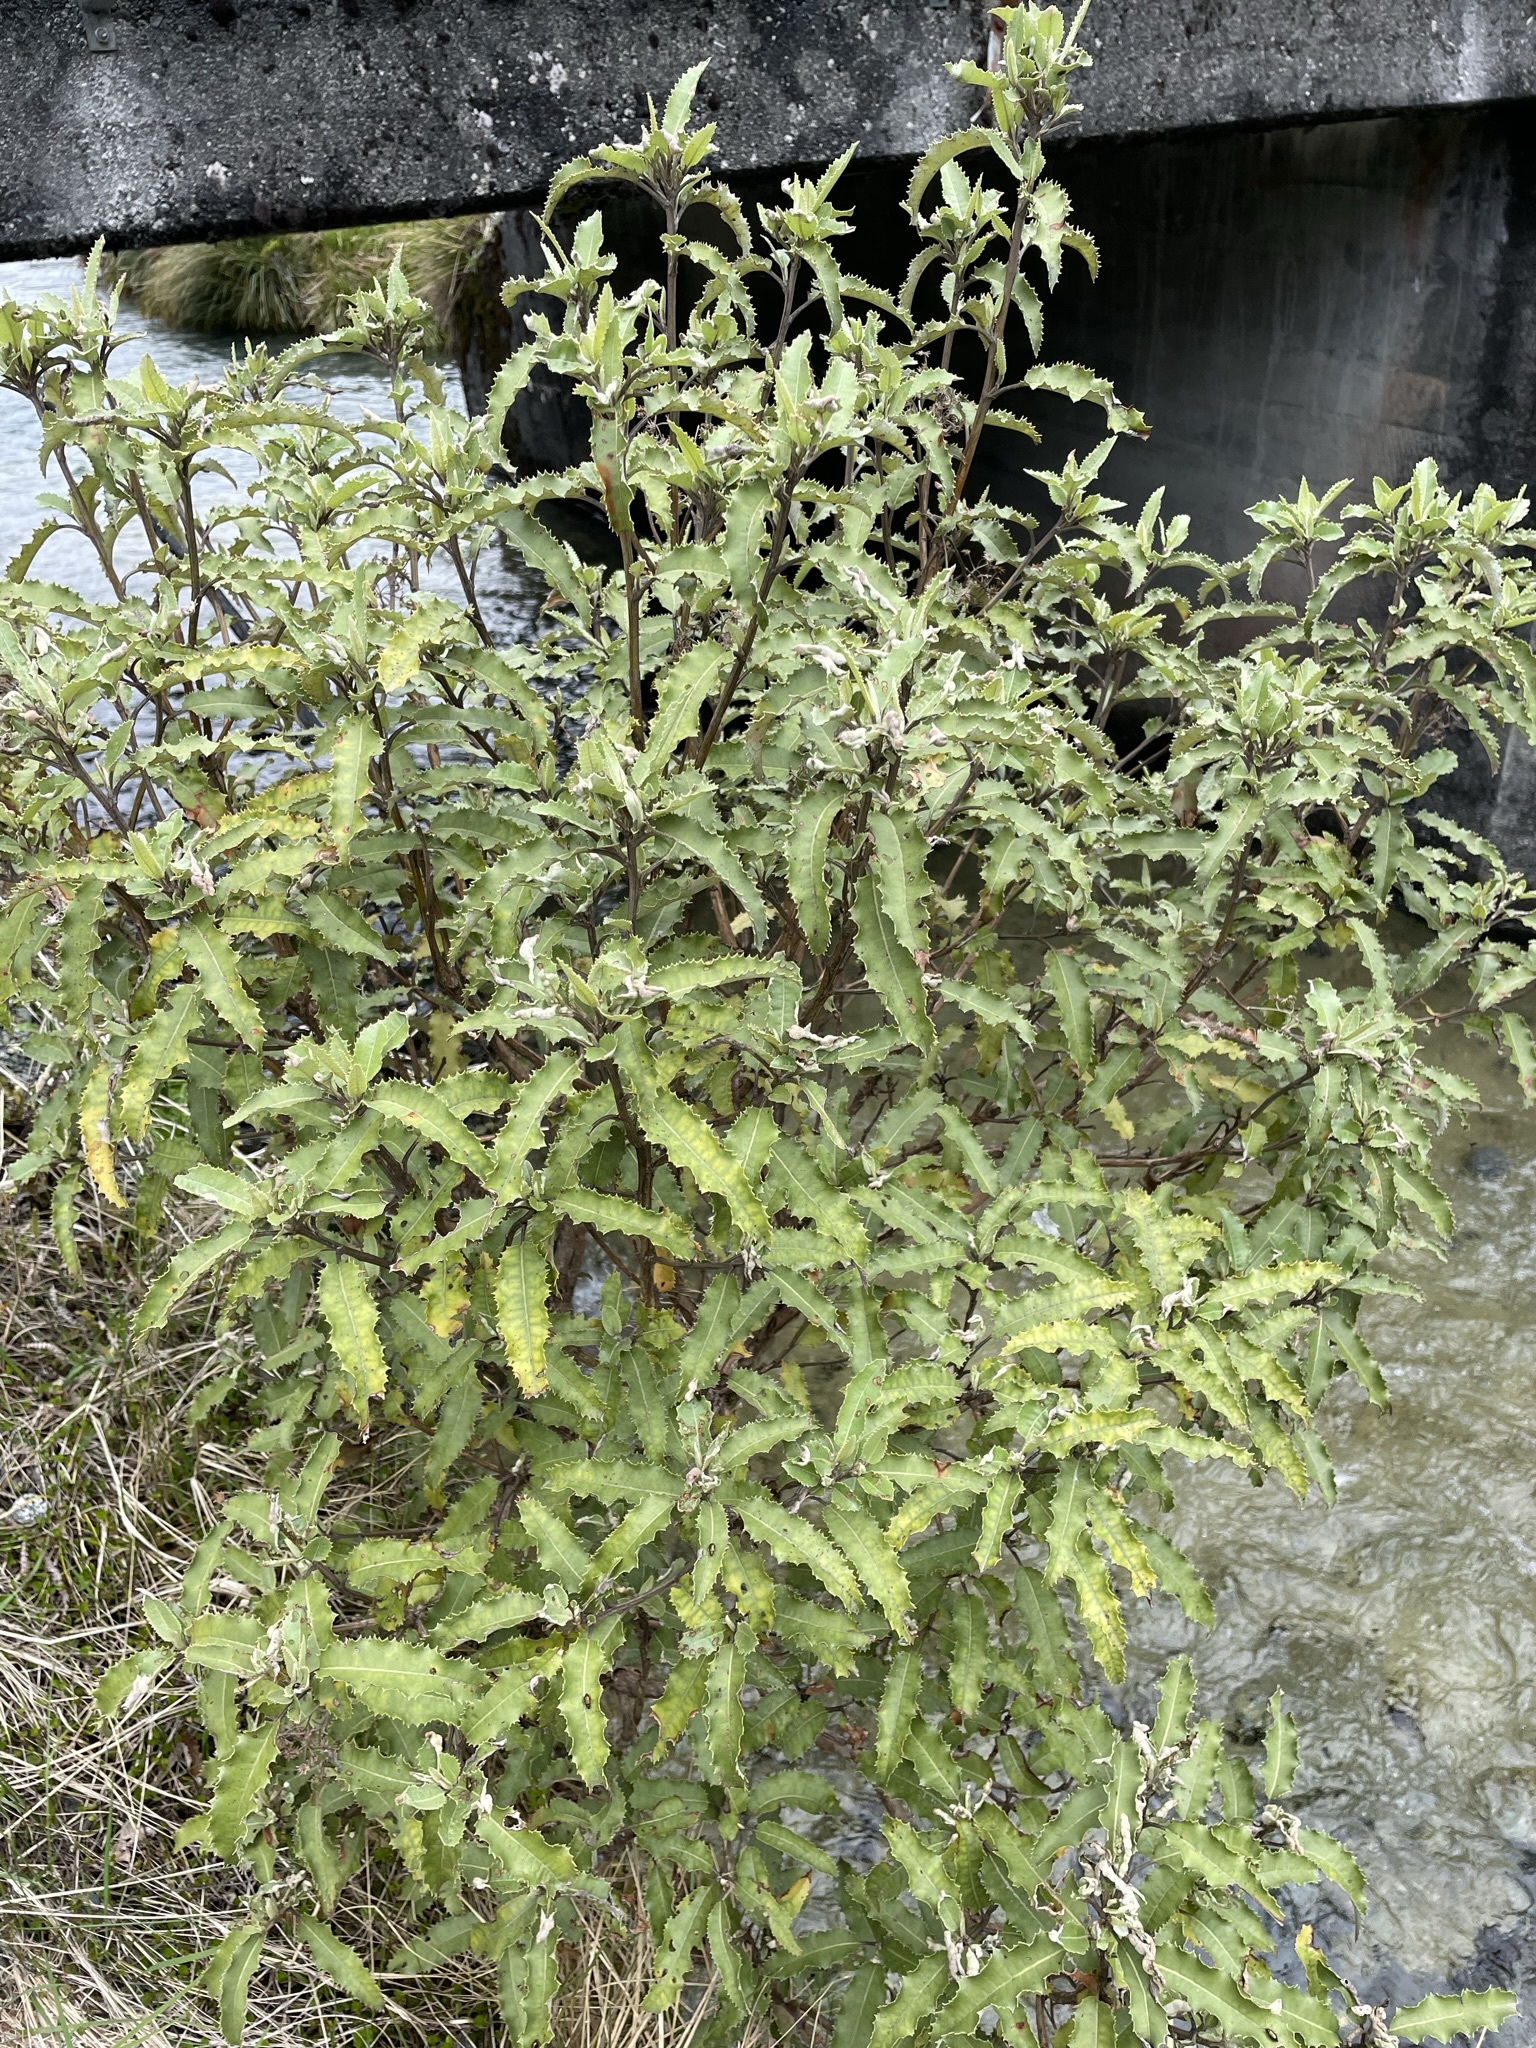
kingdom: Plantae
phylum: Tracheophyta
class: Magnoliopsida
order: Asterales
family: Asteraceae
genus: Olearia
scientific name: Olearia ilicifolia
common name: Maori-holly
